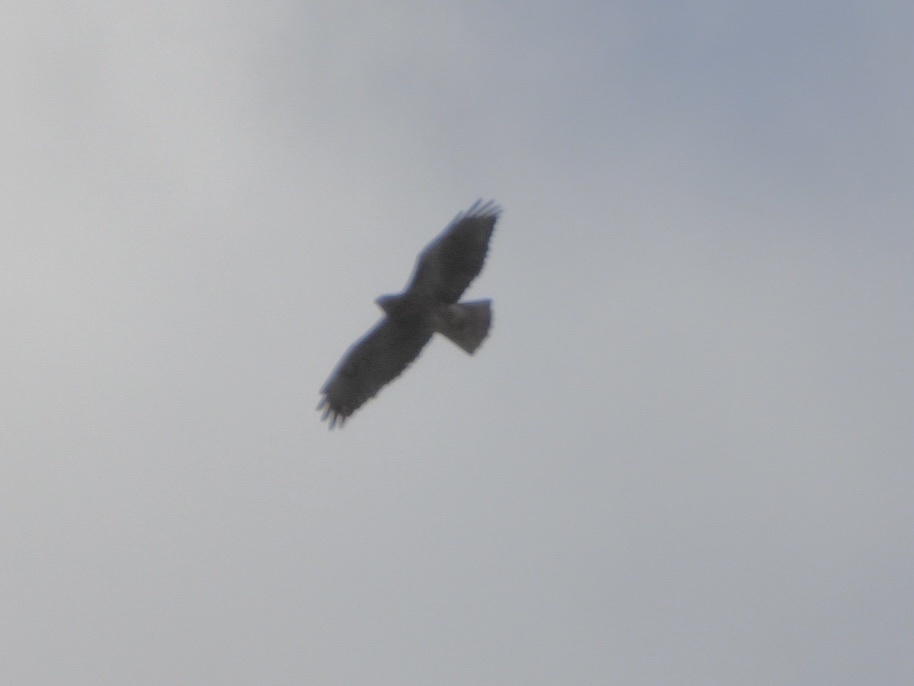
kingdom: Animalia
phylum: Chordata
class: Aves
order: Accipitriformes
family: Accipitridae
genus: Buteo
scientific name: Buteo jamaicensis
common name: Red-tailed hawk
